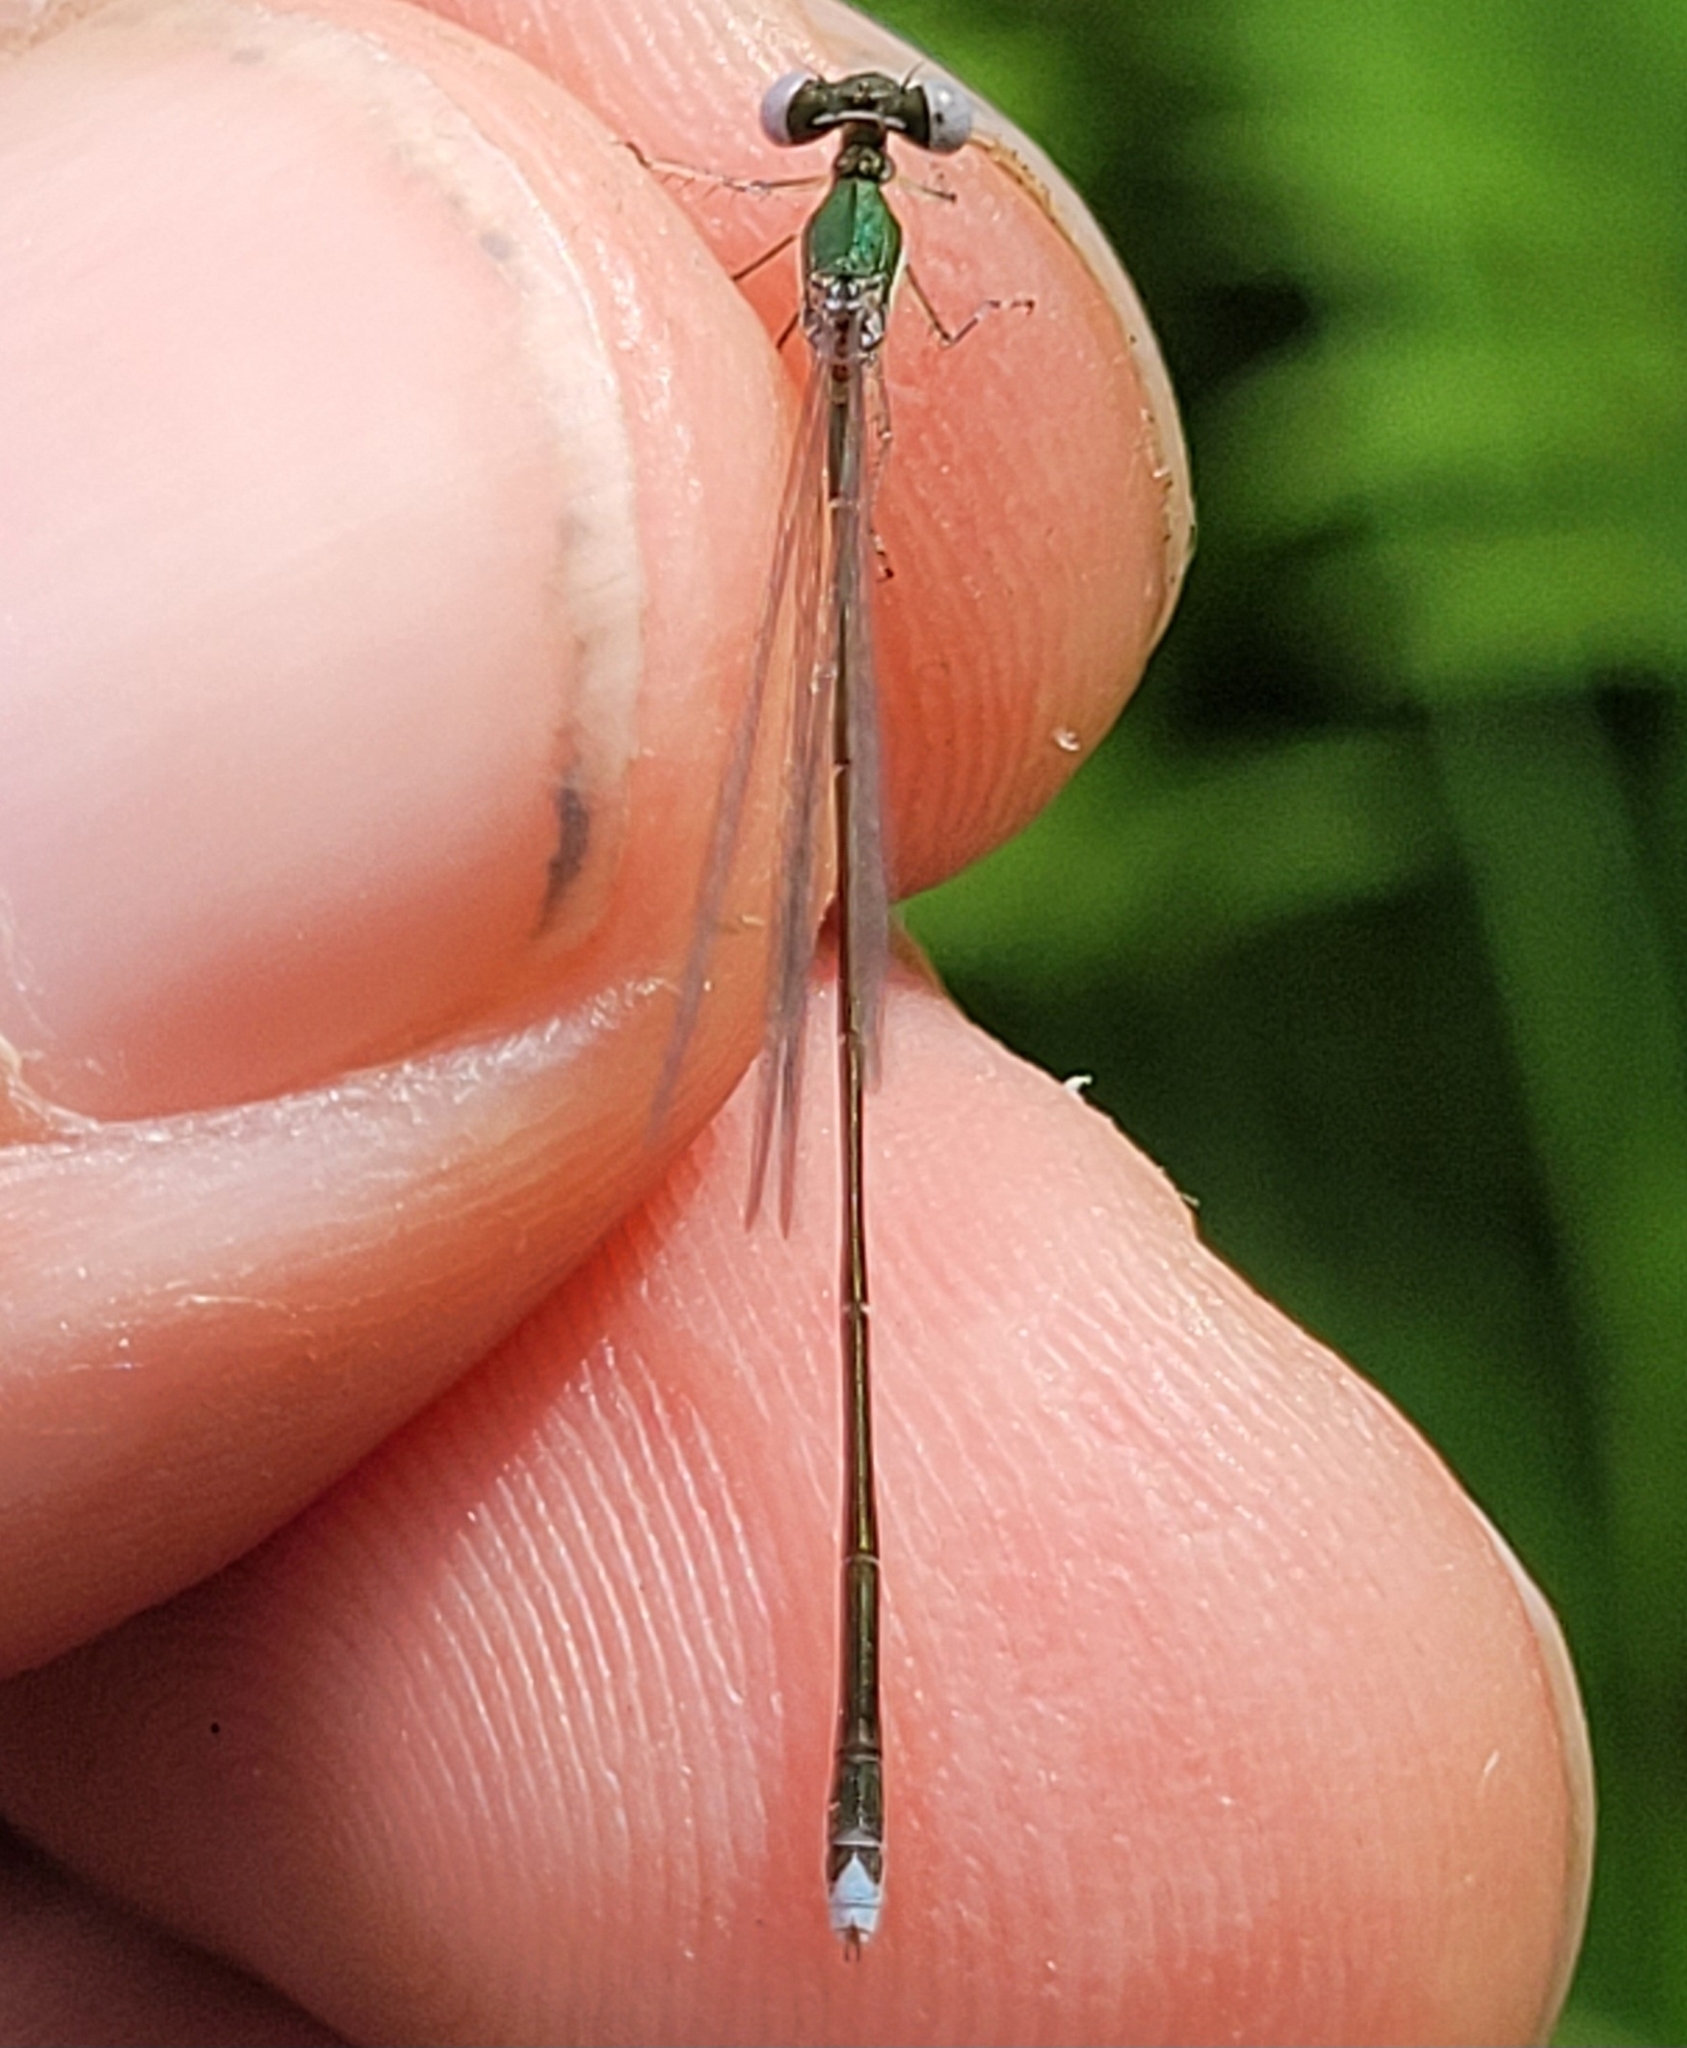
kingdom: Animalia
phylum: Arthropoda
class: Insecta
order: Odonata
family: Coenagrionidae
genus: Nehalennia
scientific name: Nehalennia gracilis
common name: Sphagnum sprite
